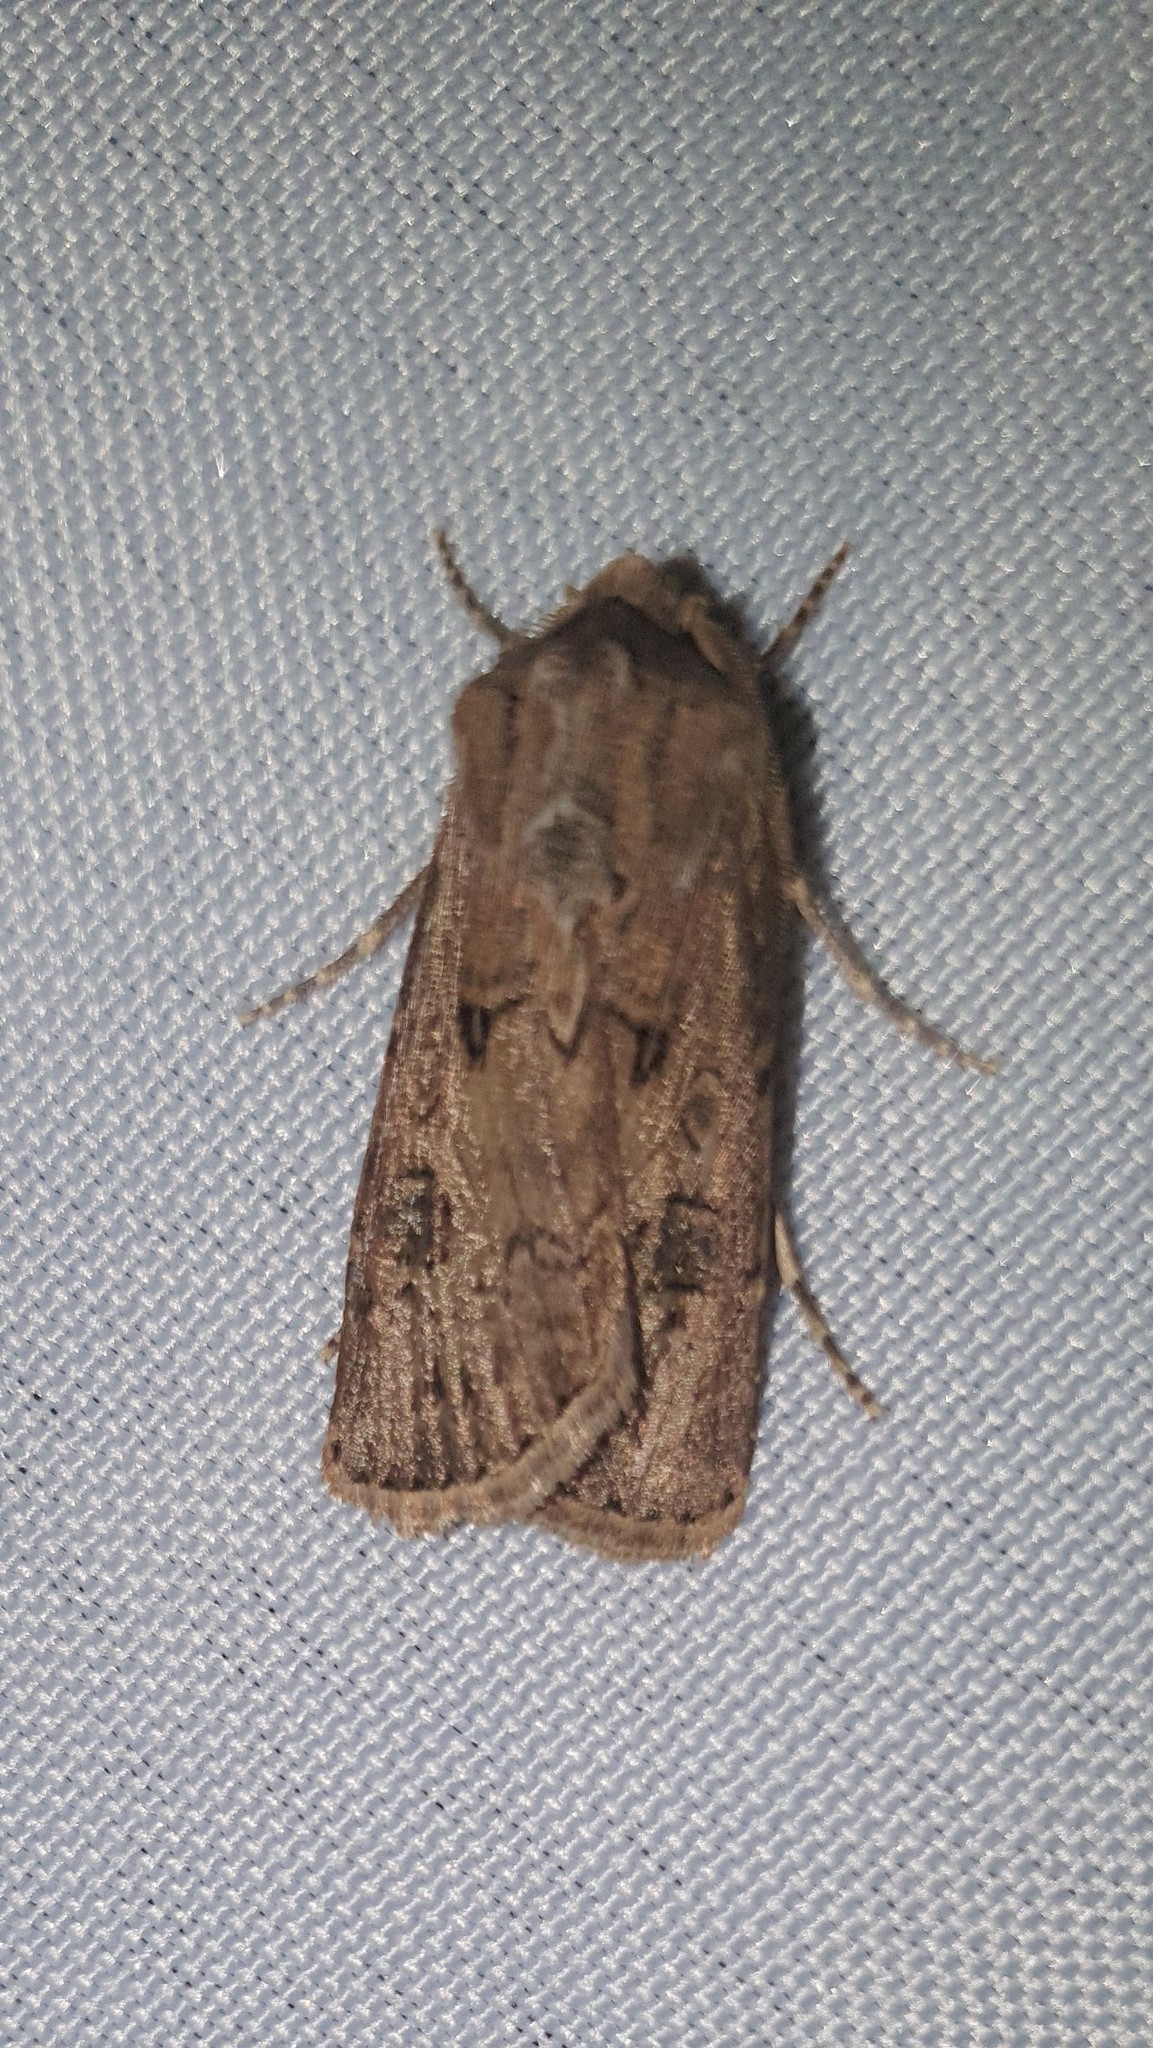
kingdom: Animalia
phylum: Arthropoda
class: Insecta
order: Lepidoptera
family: Noctuidae
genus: Agrotis
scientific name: Agrotis segetum
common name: Turnip moth
